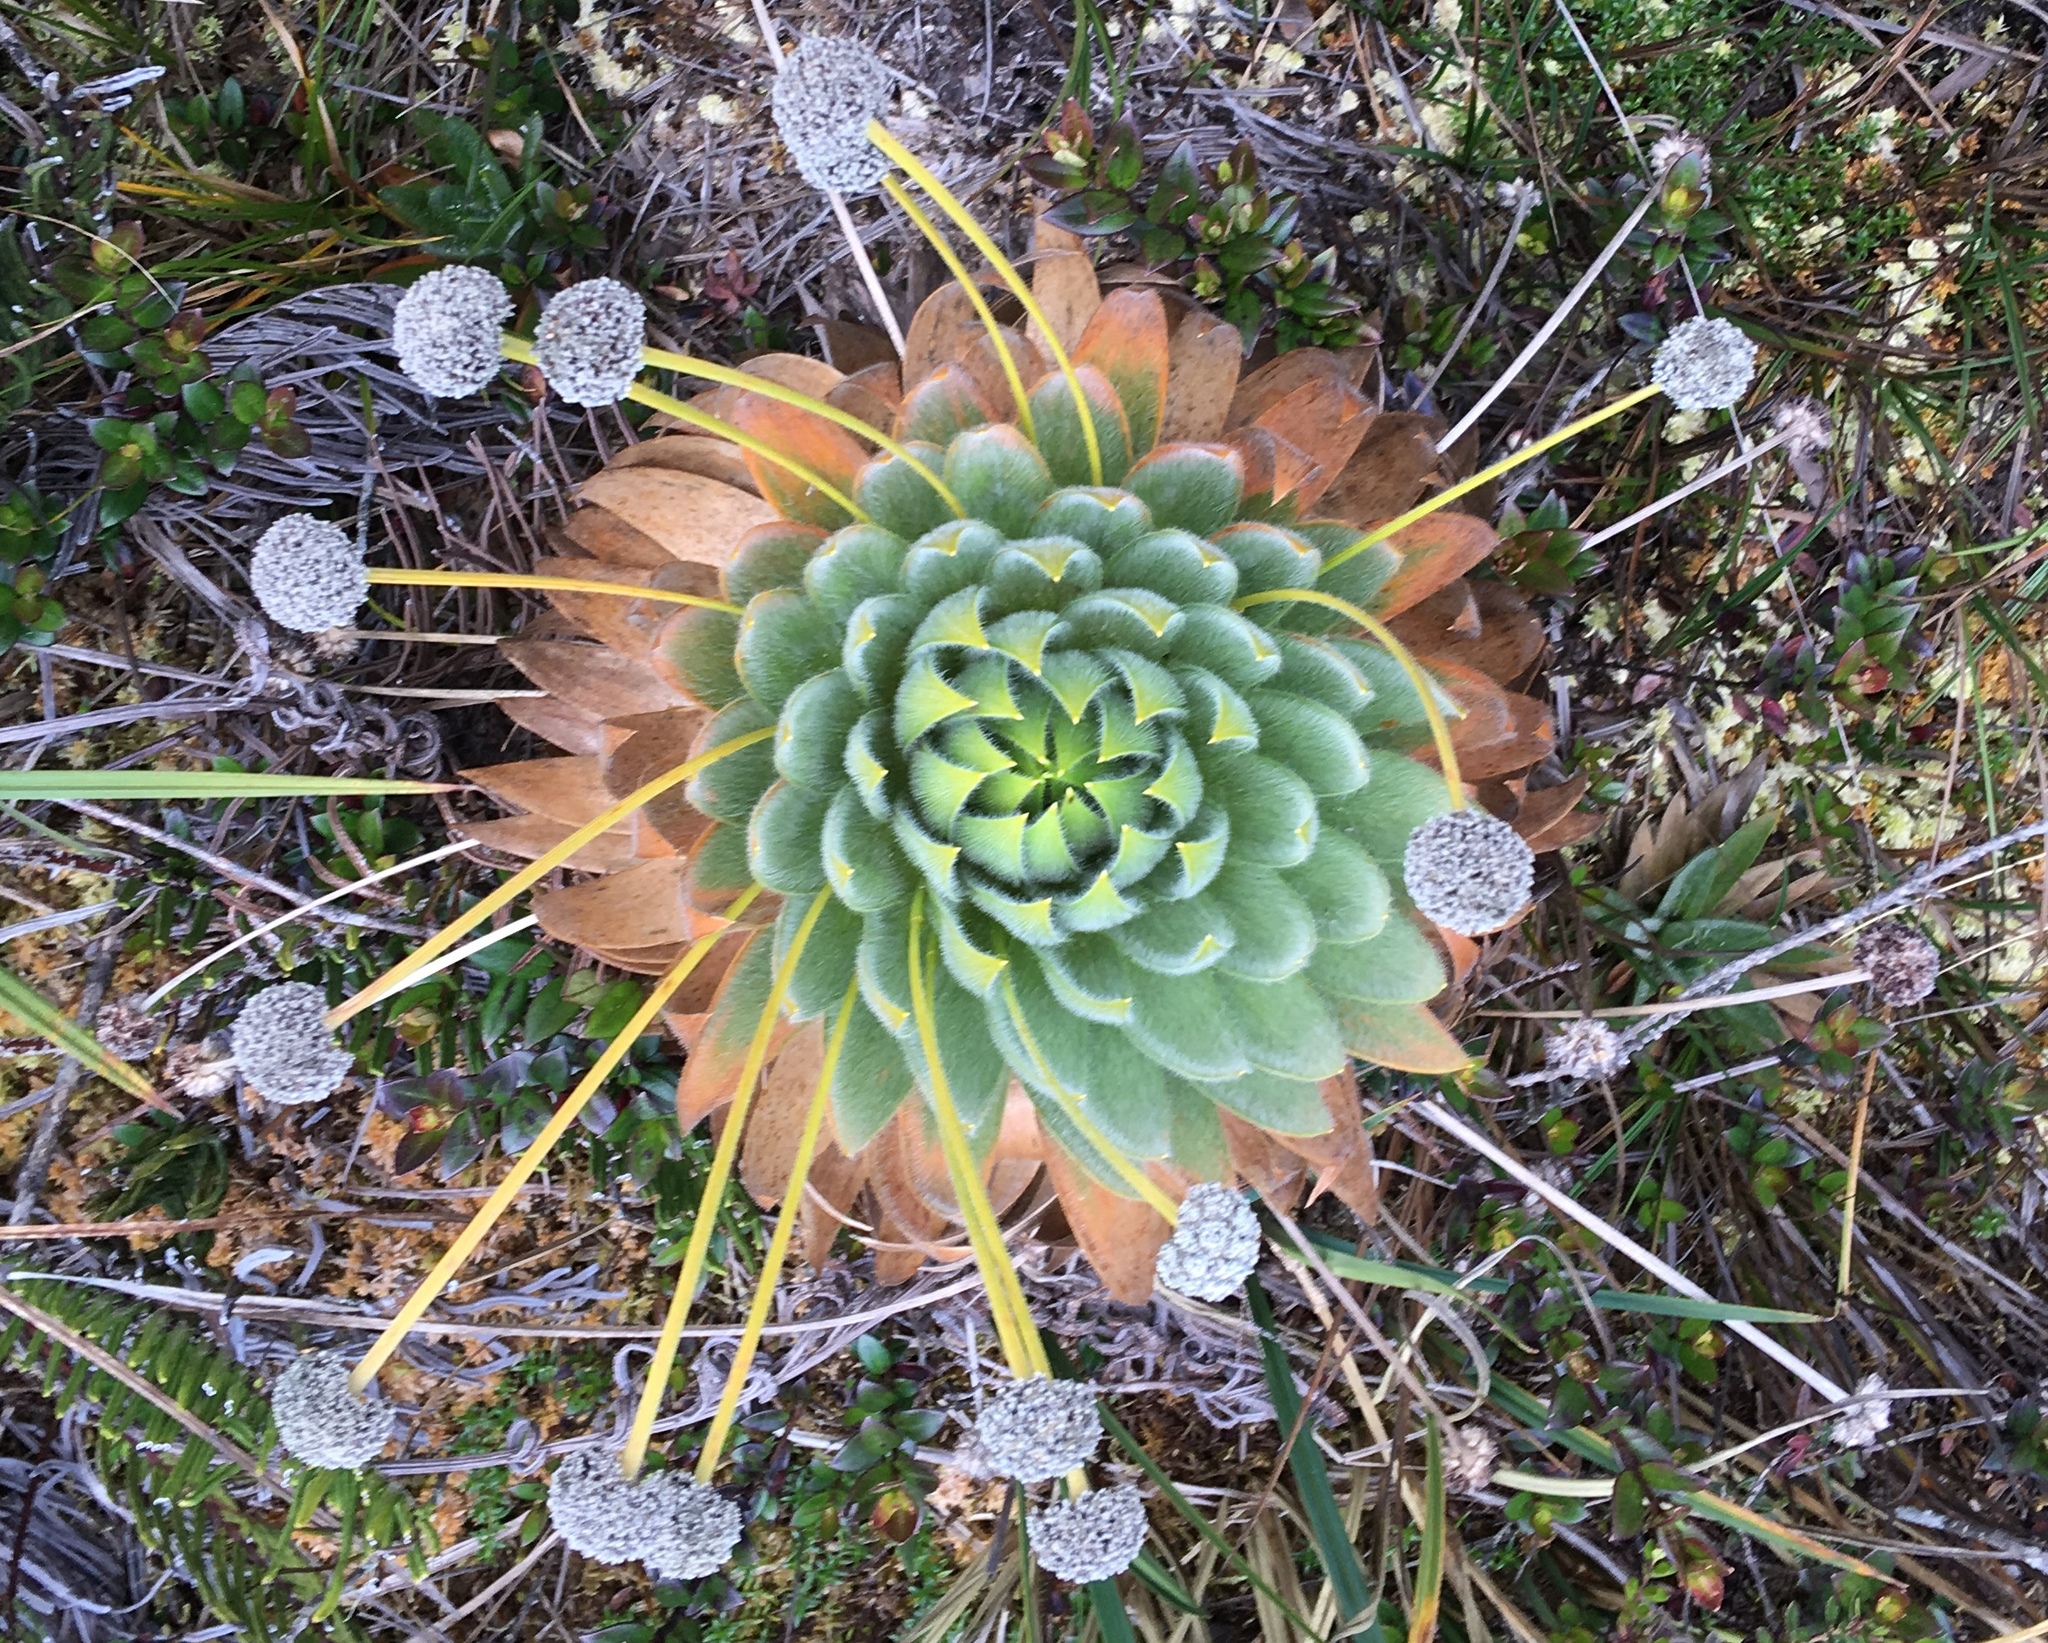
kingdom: Plantae
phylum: Tracheophyta
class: Liliopsida
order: Poales
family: Eriocaulaceae
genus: Paepalanthus
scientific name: Paepalanthus alpinus
